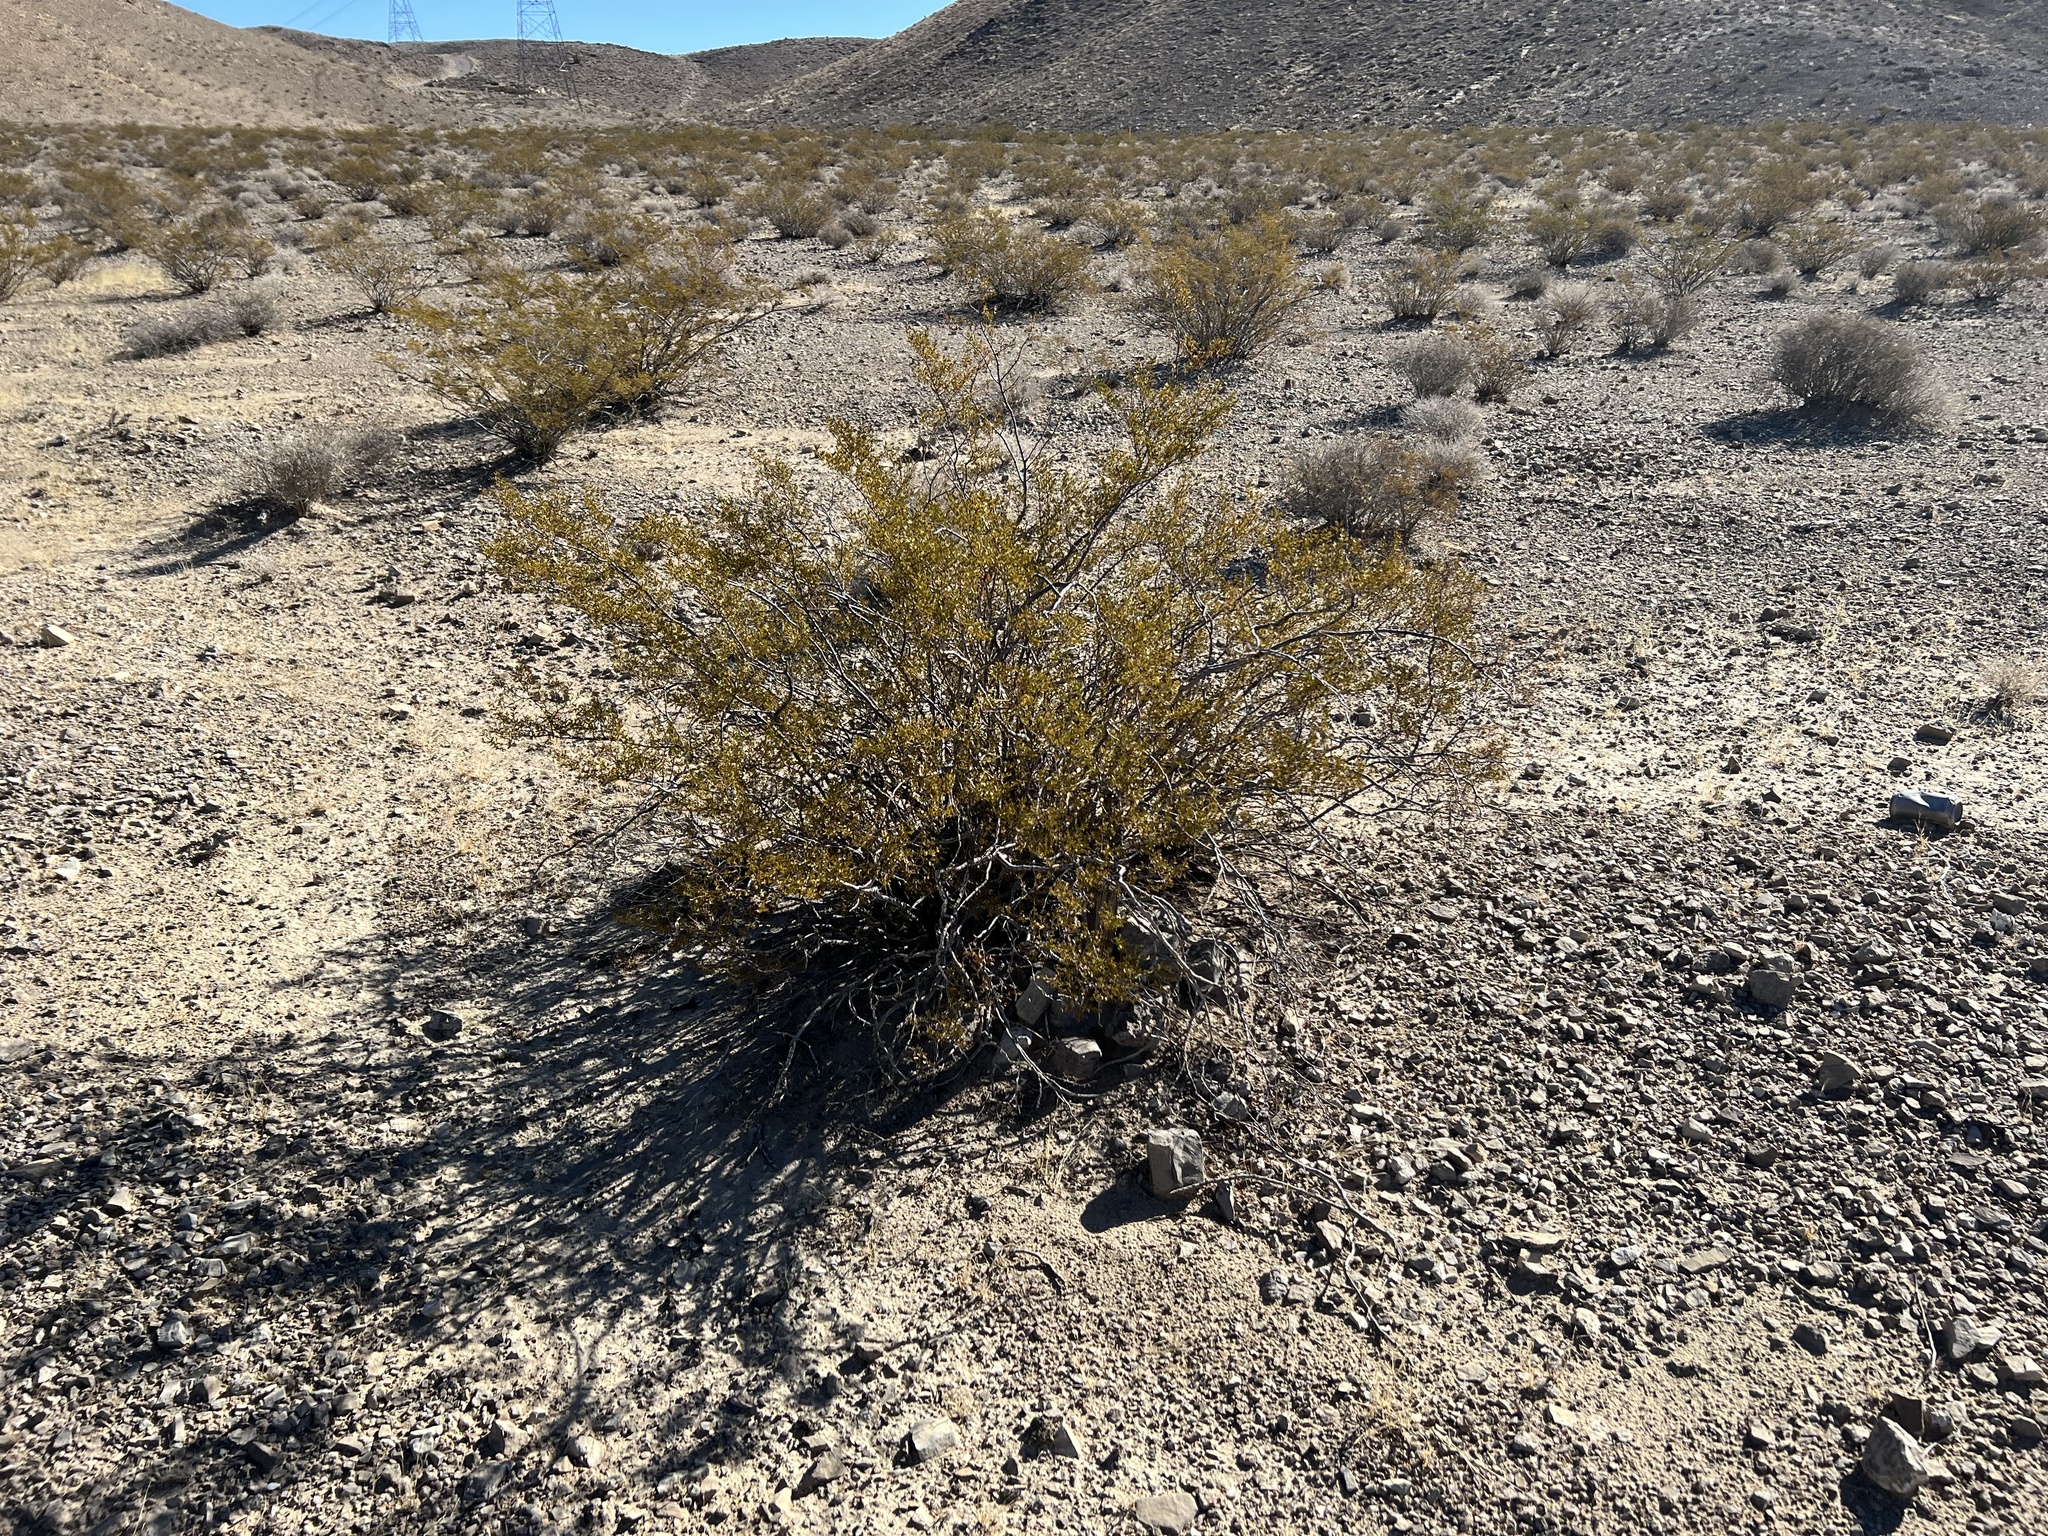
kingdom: Plantae
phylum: Tracheophyta
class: Magnoliopsida
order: Zygophyllales
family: Zygophyllaceae
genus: Larrea
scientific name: Larrea tridentata
